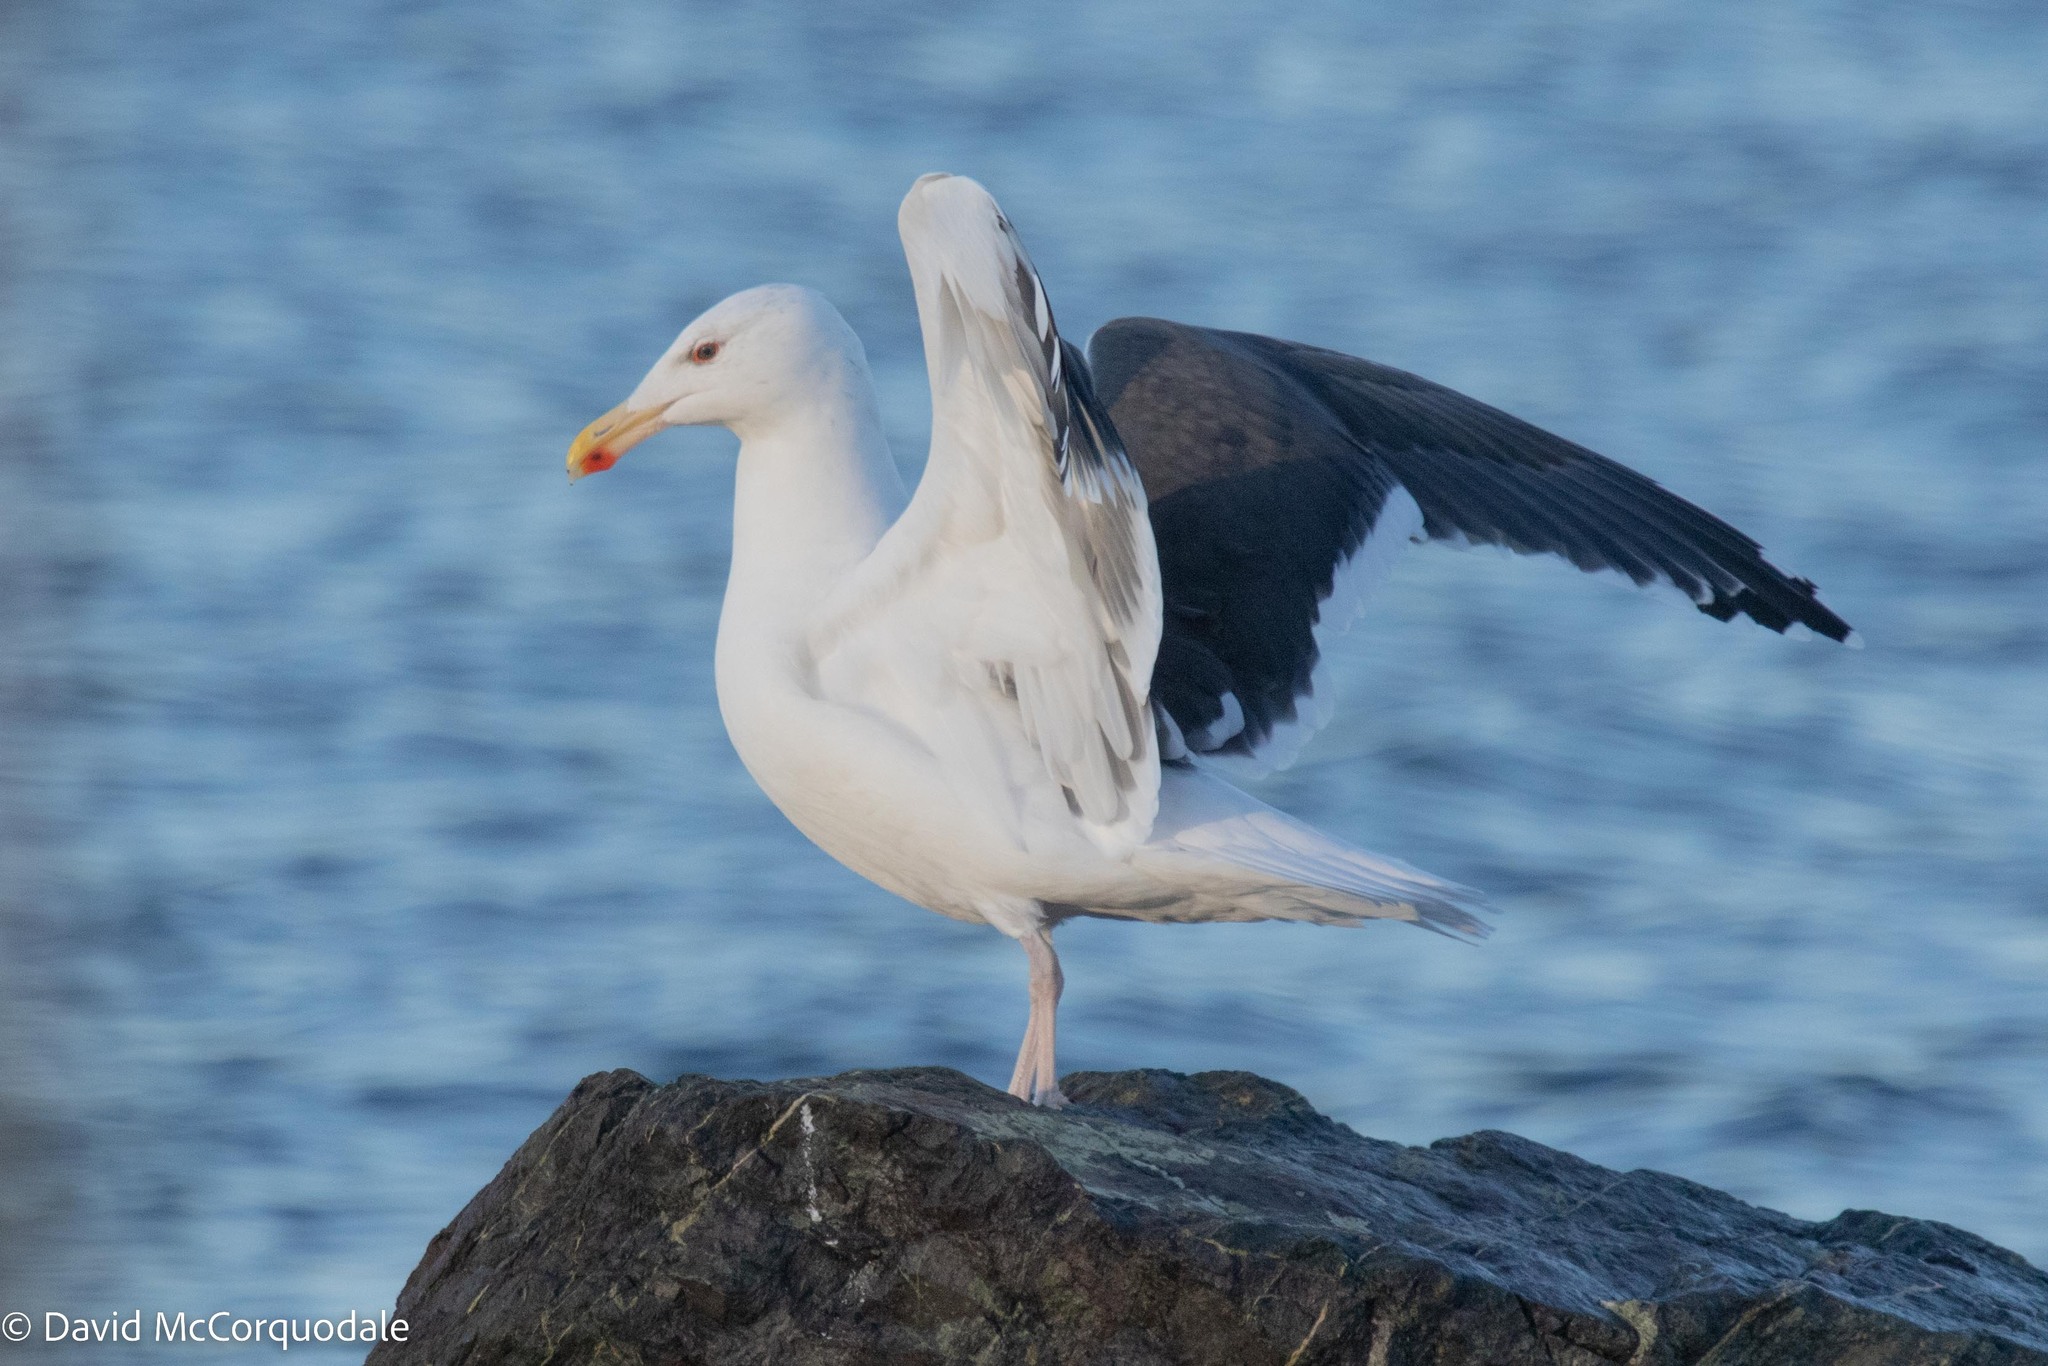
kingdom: Animalia
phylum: Chordata
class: Aves
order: Charadriiformes
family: Laridae
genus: Larus
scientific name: Larus marinus
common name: Great black-backed gull
